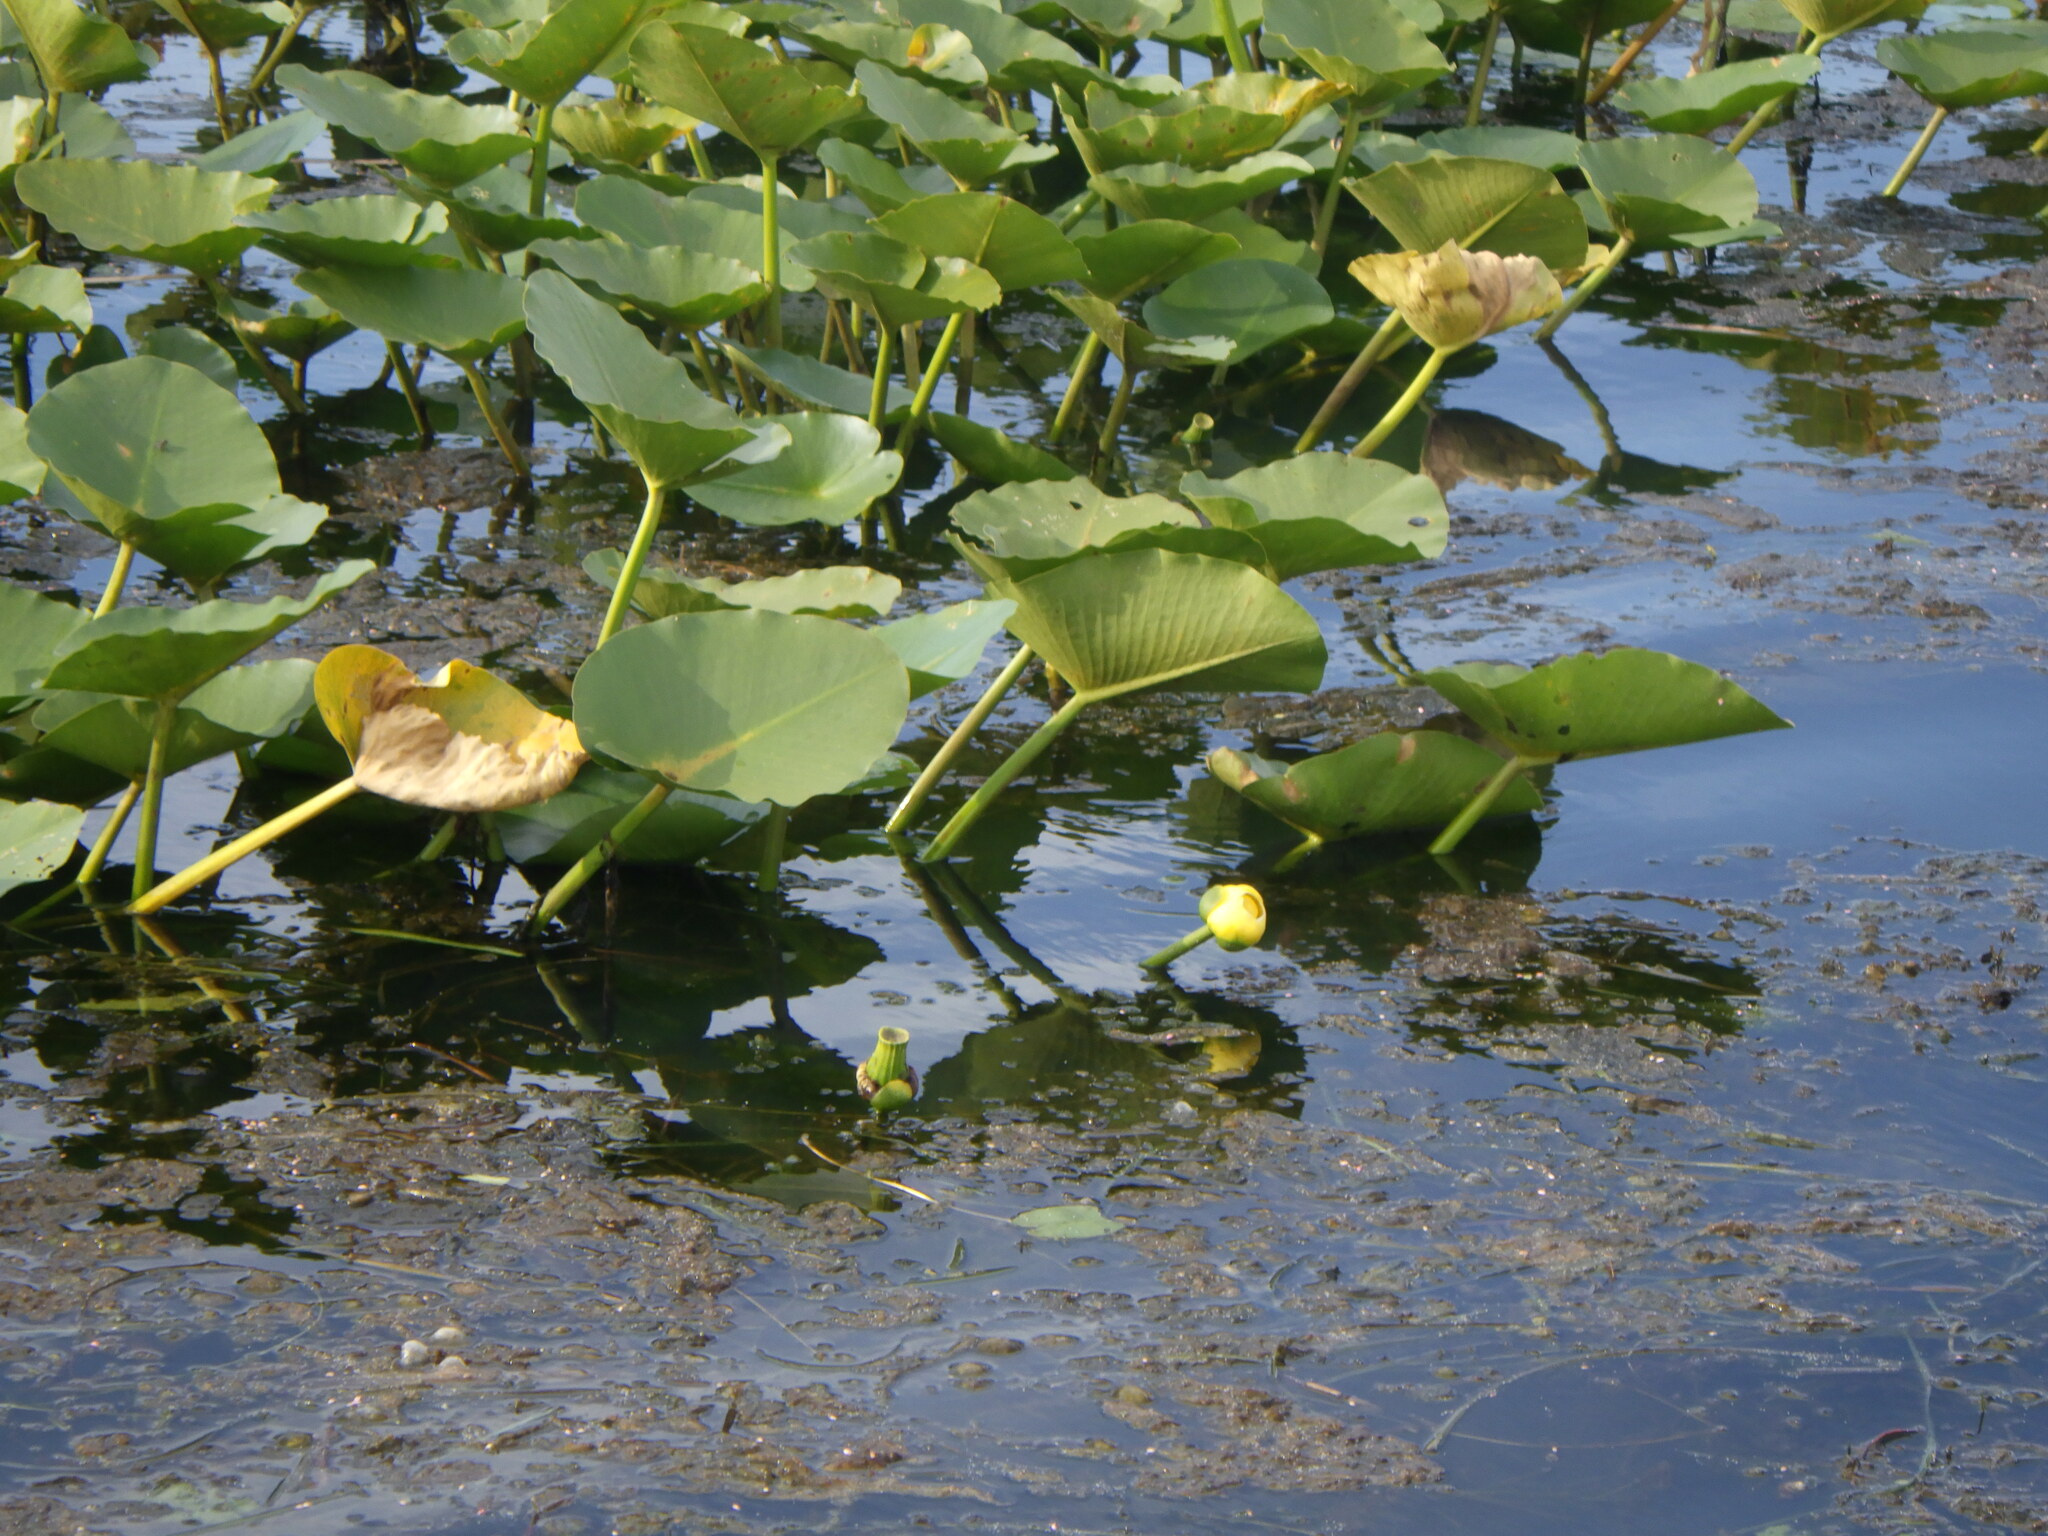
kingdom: Plantae
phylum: Tracheophyta
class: Magnoliopsida
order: Nymphaeales
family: Nymphaeaceae
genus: Nuphar
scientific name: Nuphar advena
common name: Spatter-dock
